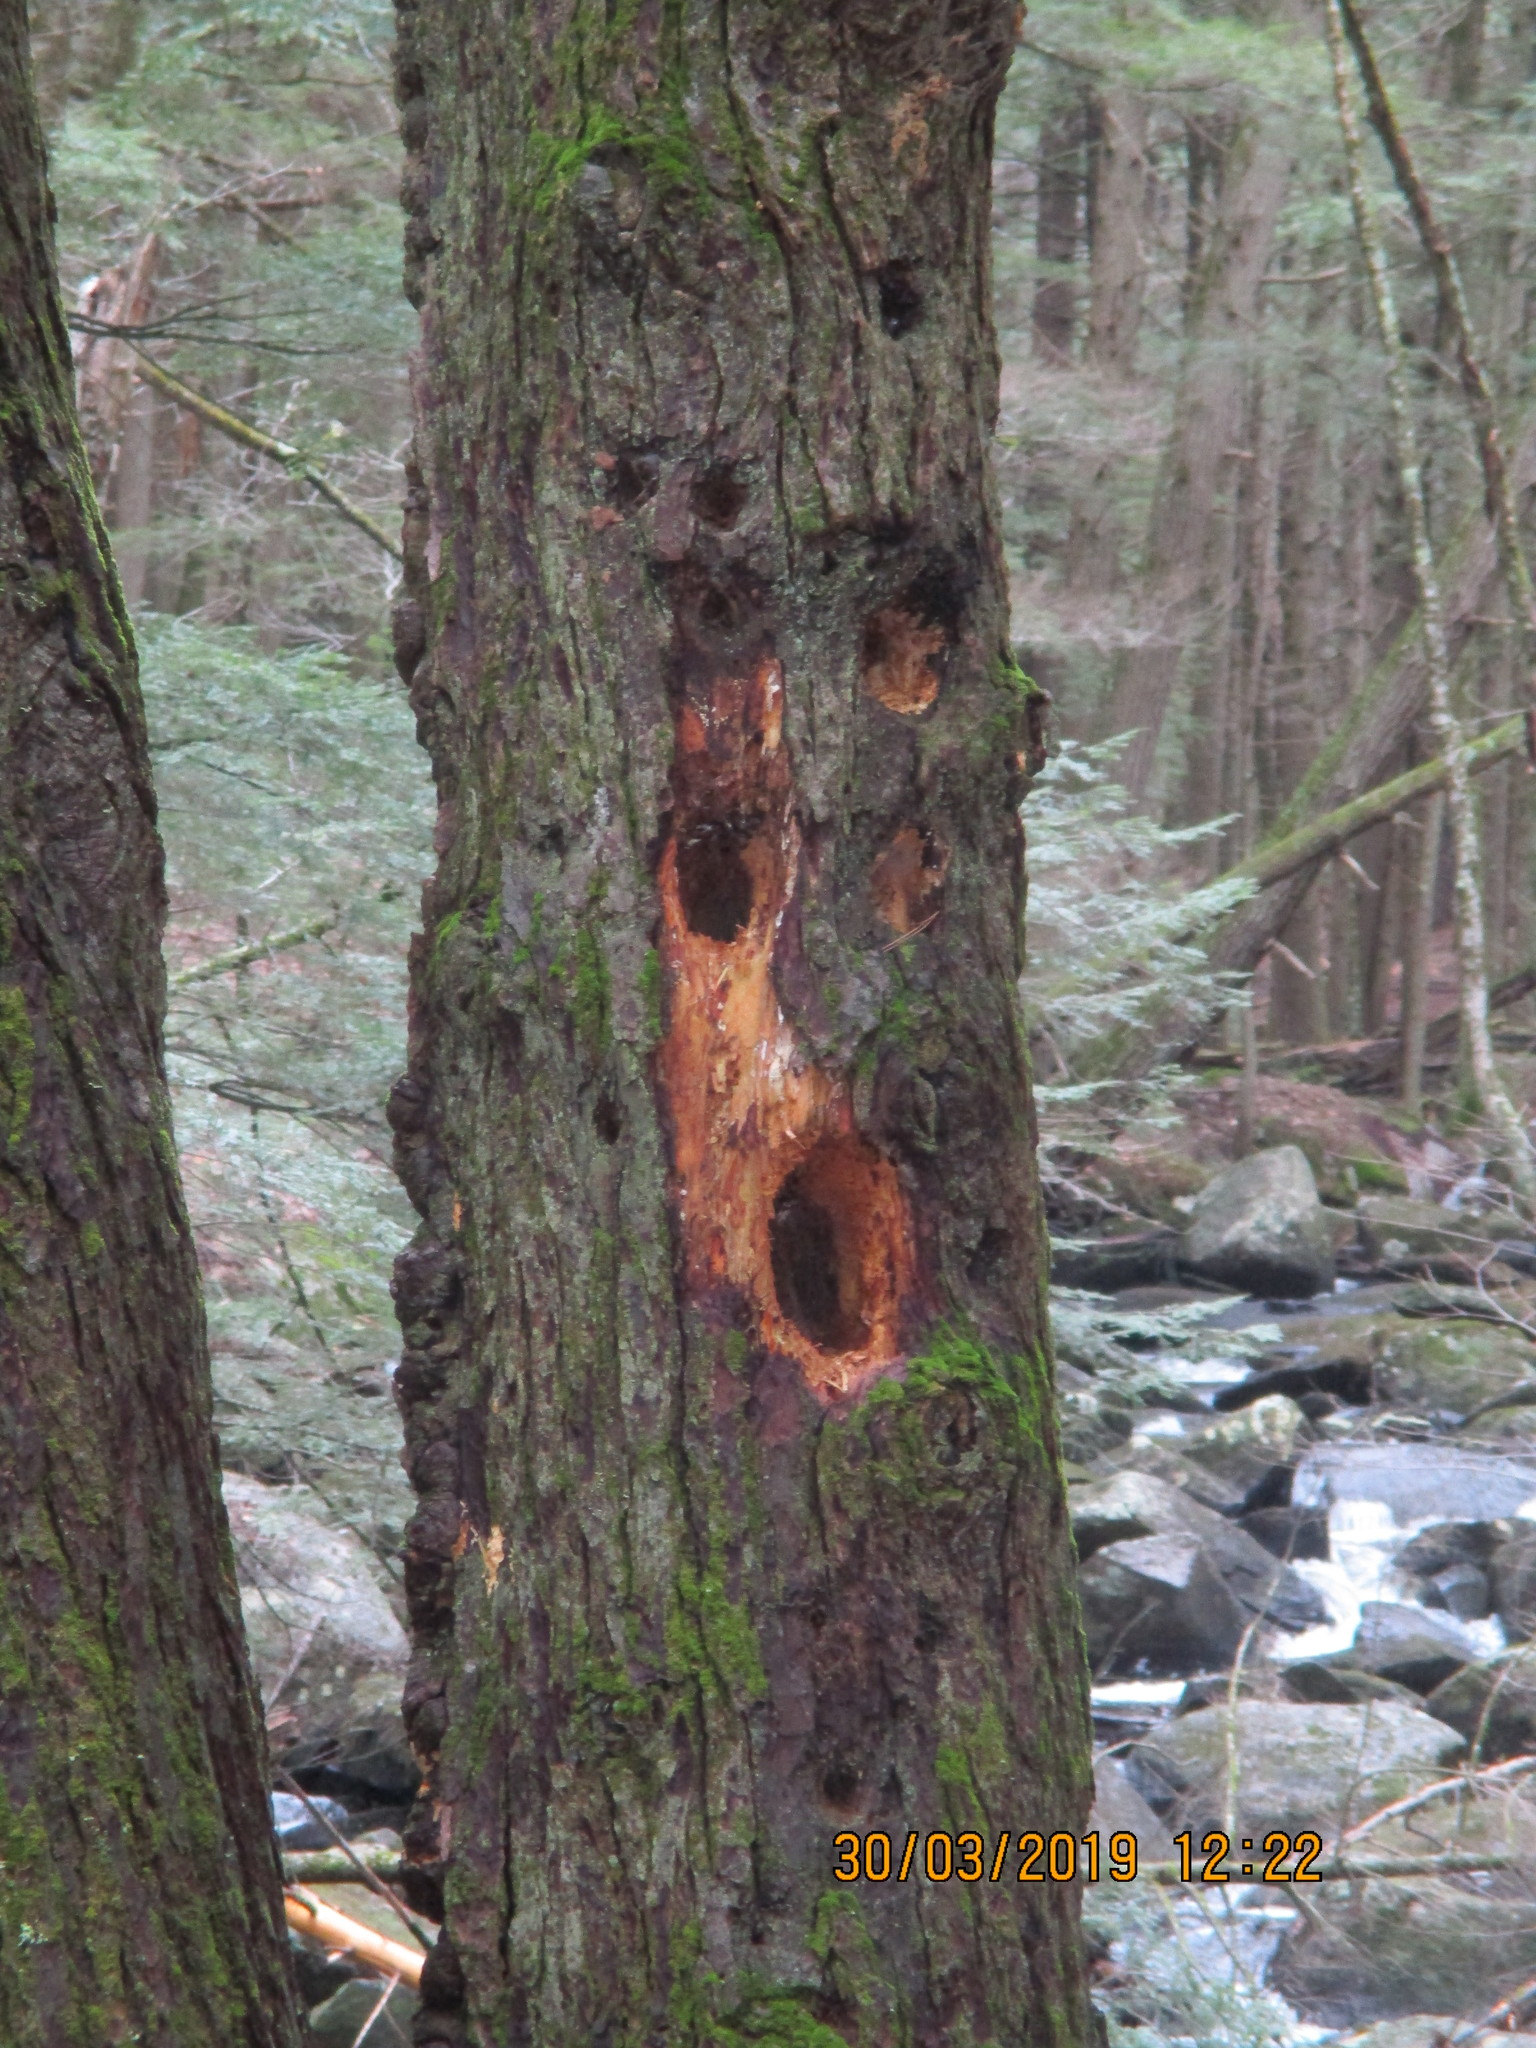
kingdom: Animalia
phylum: Chordata
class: Aves
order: Piciformes
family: Picidae
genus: Dryocopus
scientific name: Dryocopus pileatus
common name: Pileated woodpecker
